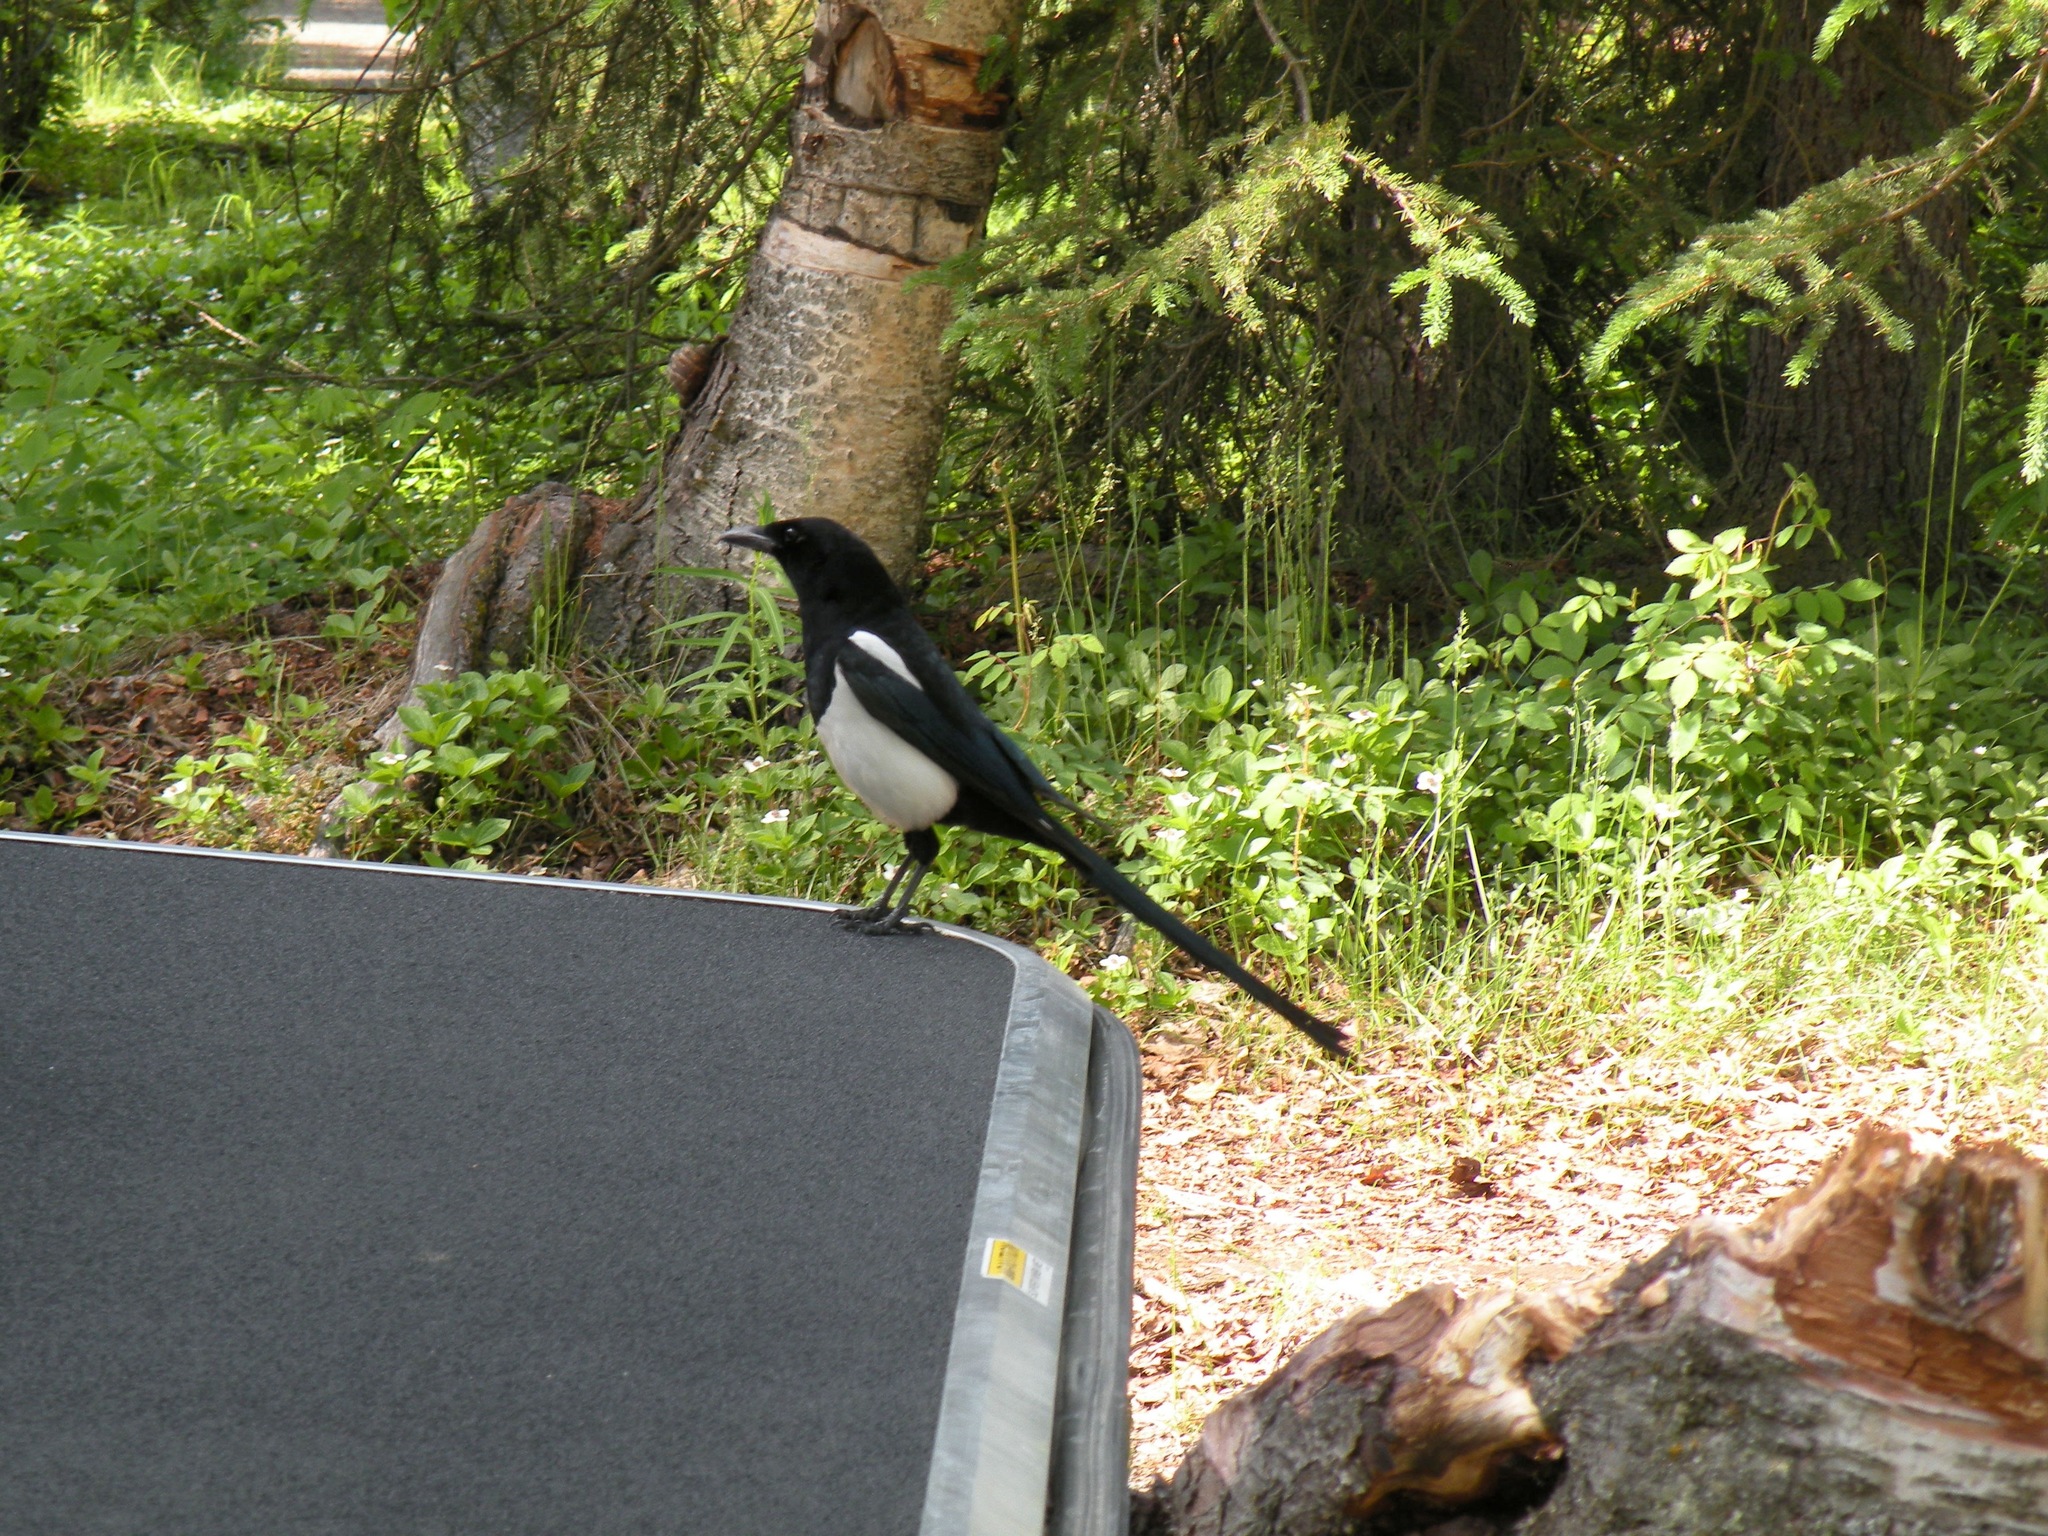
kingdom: Animalia
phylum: Chordata
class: Aves
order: Passeriformes
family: Corvidae
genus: Pica
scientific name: Pica hudsonia
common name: Black-billed magpie
